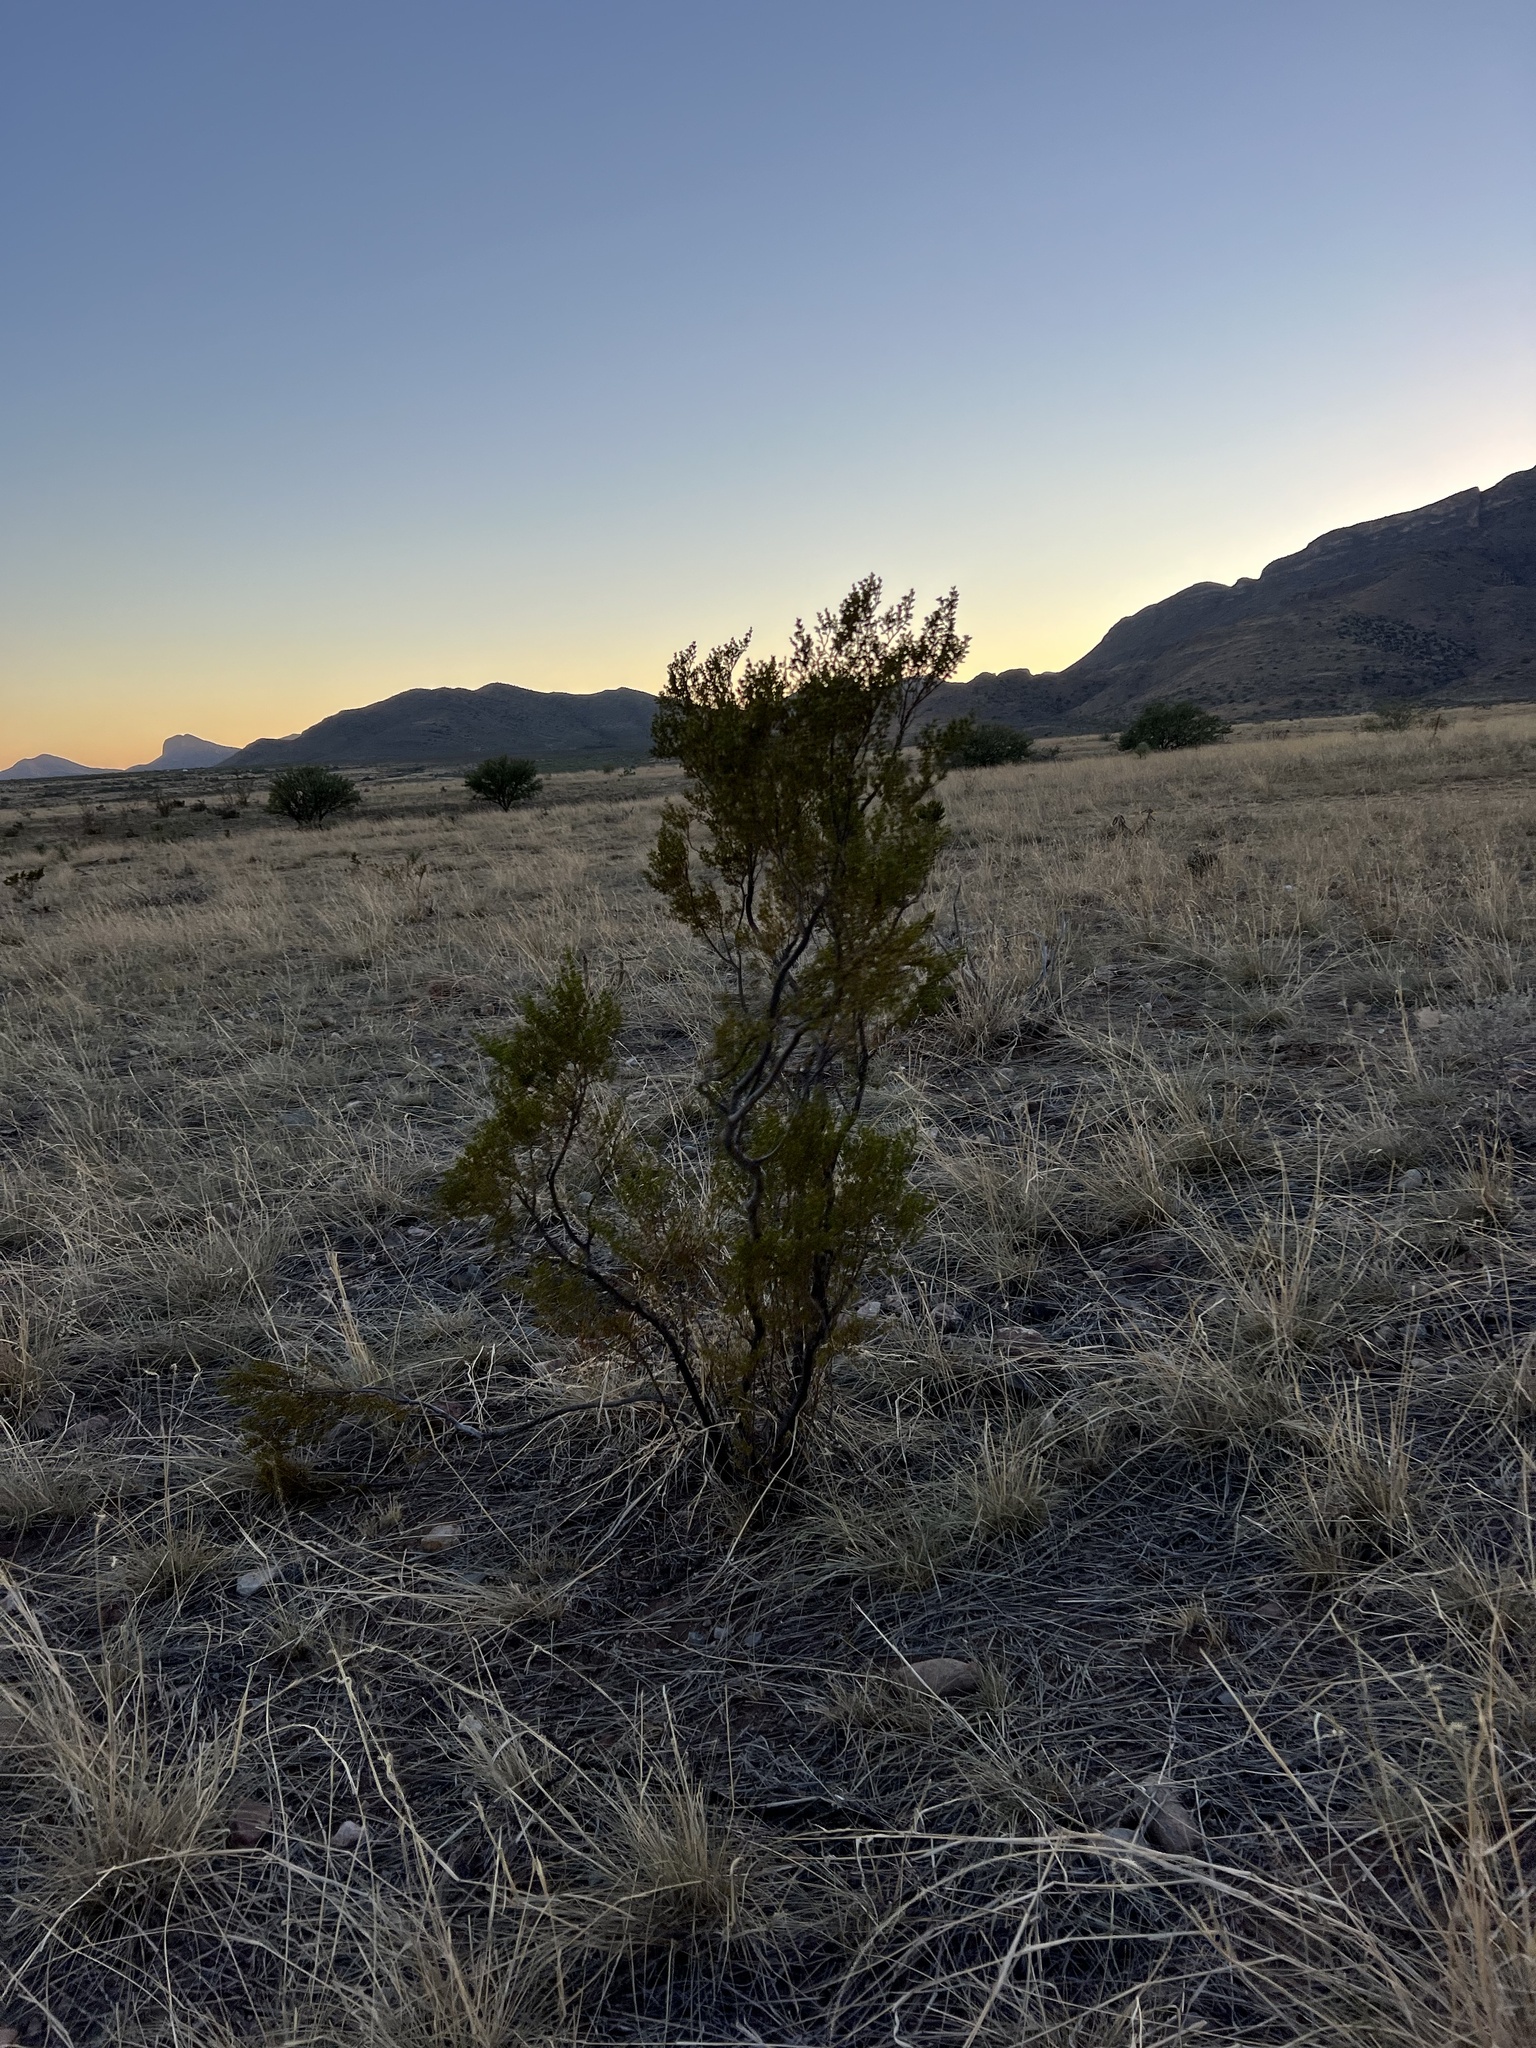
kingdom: Plantae
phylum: Tracheophyta
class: Magnoliopsida
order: Zygophyllales
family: Zygophyllaceae
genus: Larrea
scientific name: Larrea tridentata
